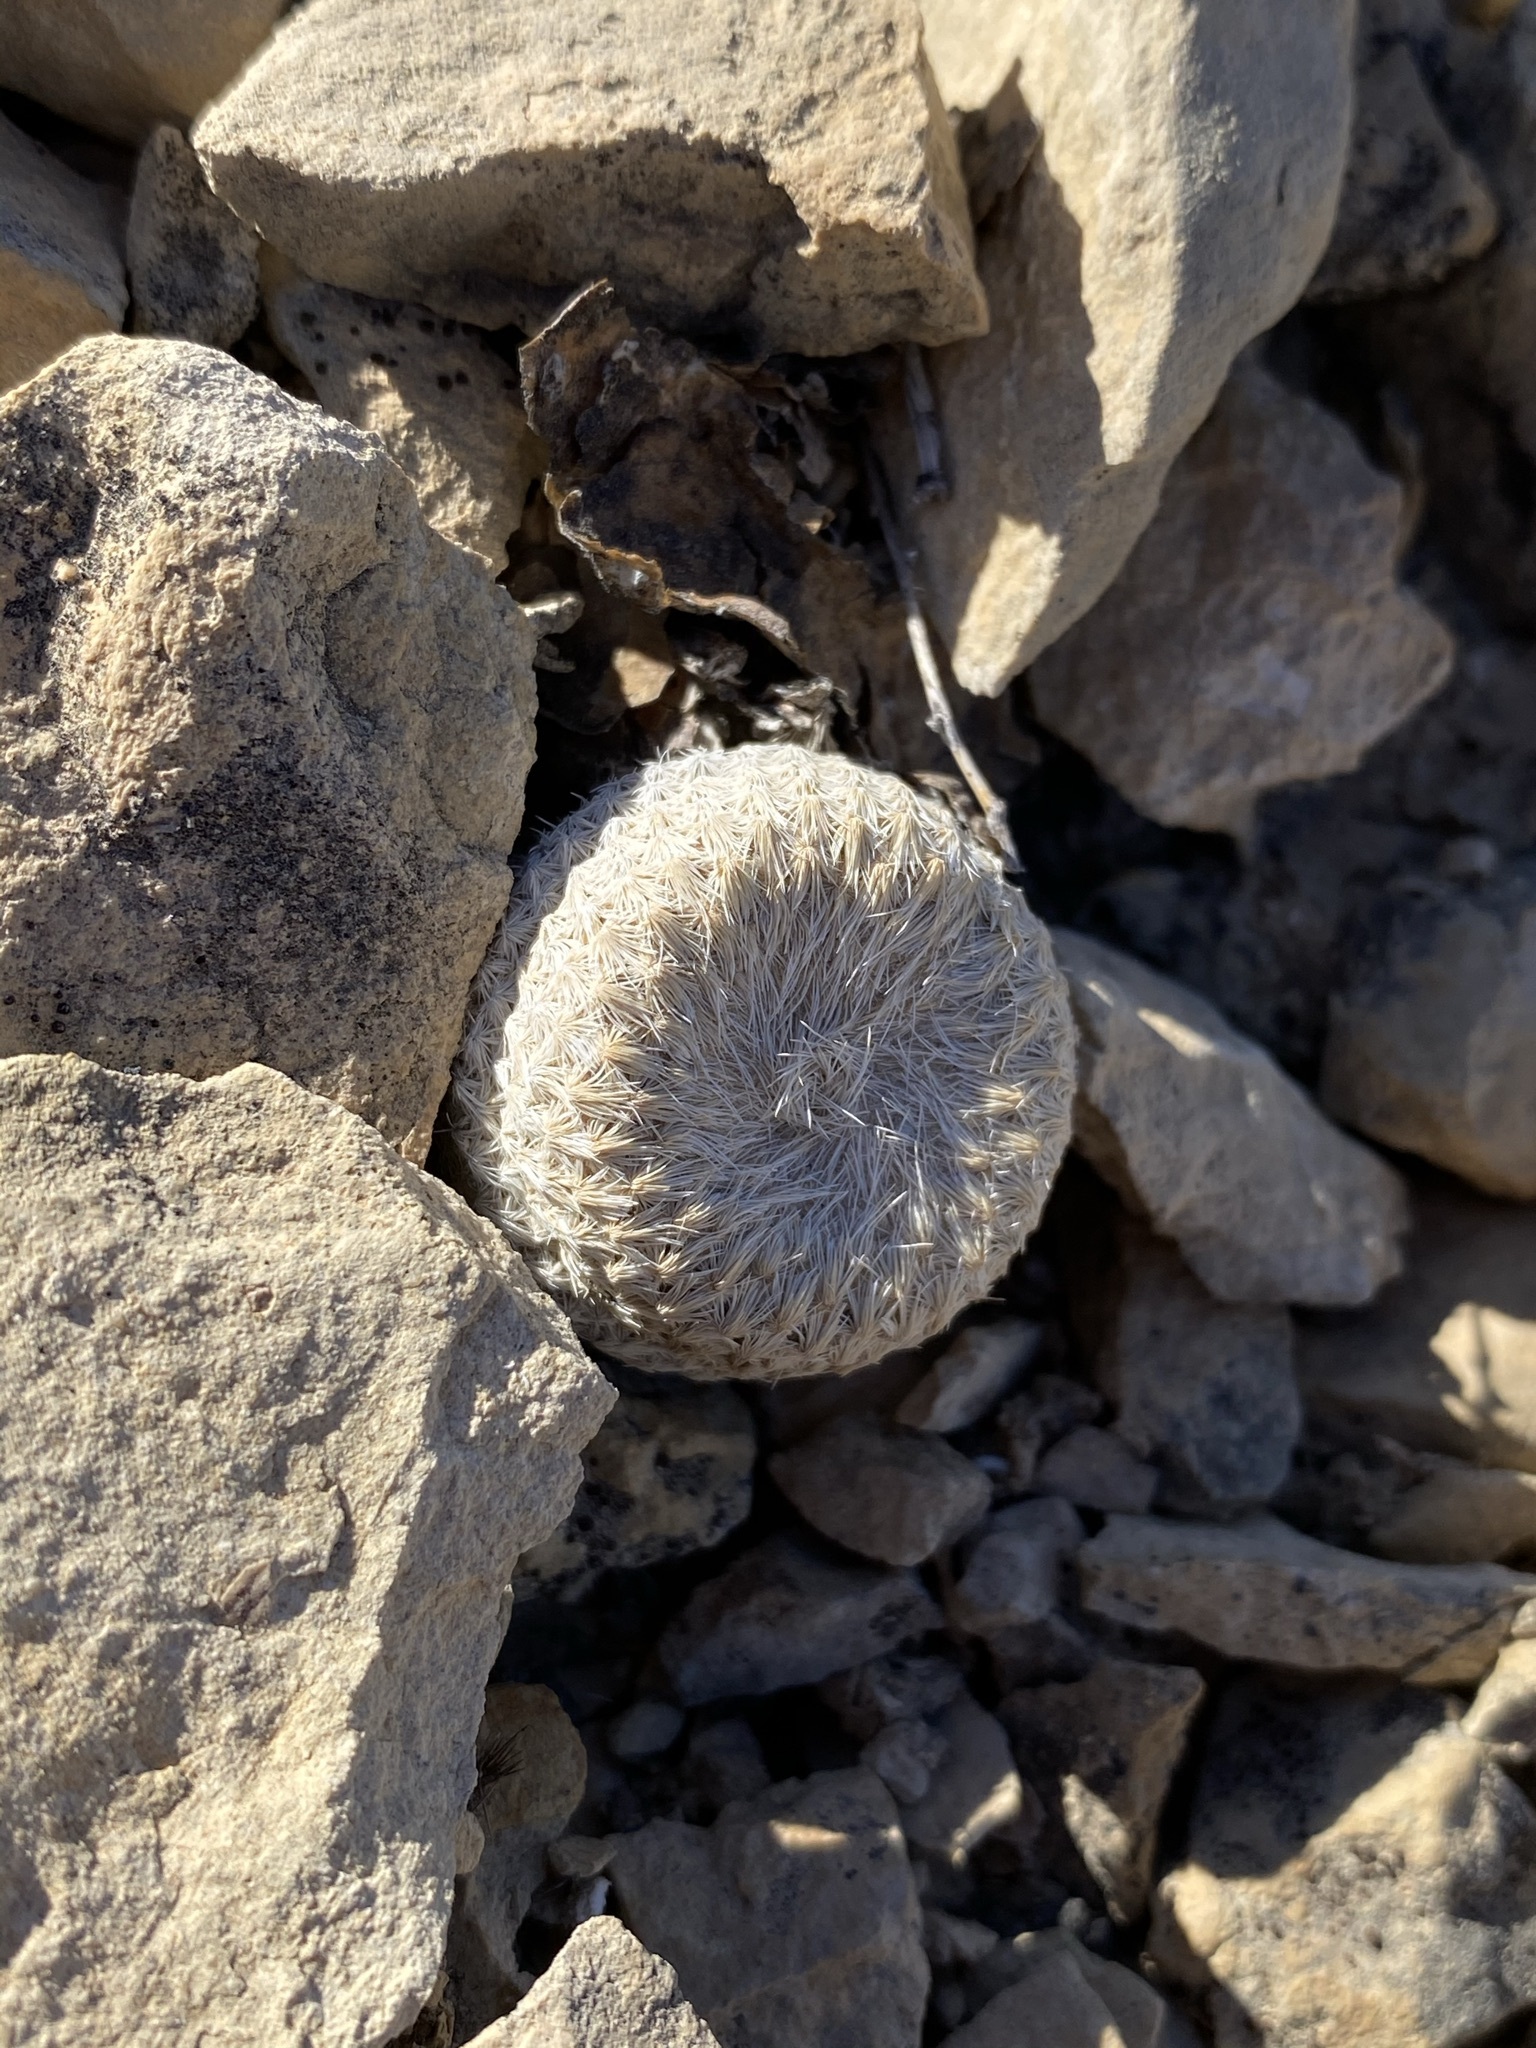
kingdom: Plantae
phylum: Tracheophyta
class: Magnoliopsida
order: Caryophyllales
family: Cactaceae
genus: Epithelantha
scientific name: Epithelantha bokei
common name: Boke's button cactus
